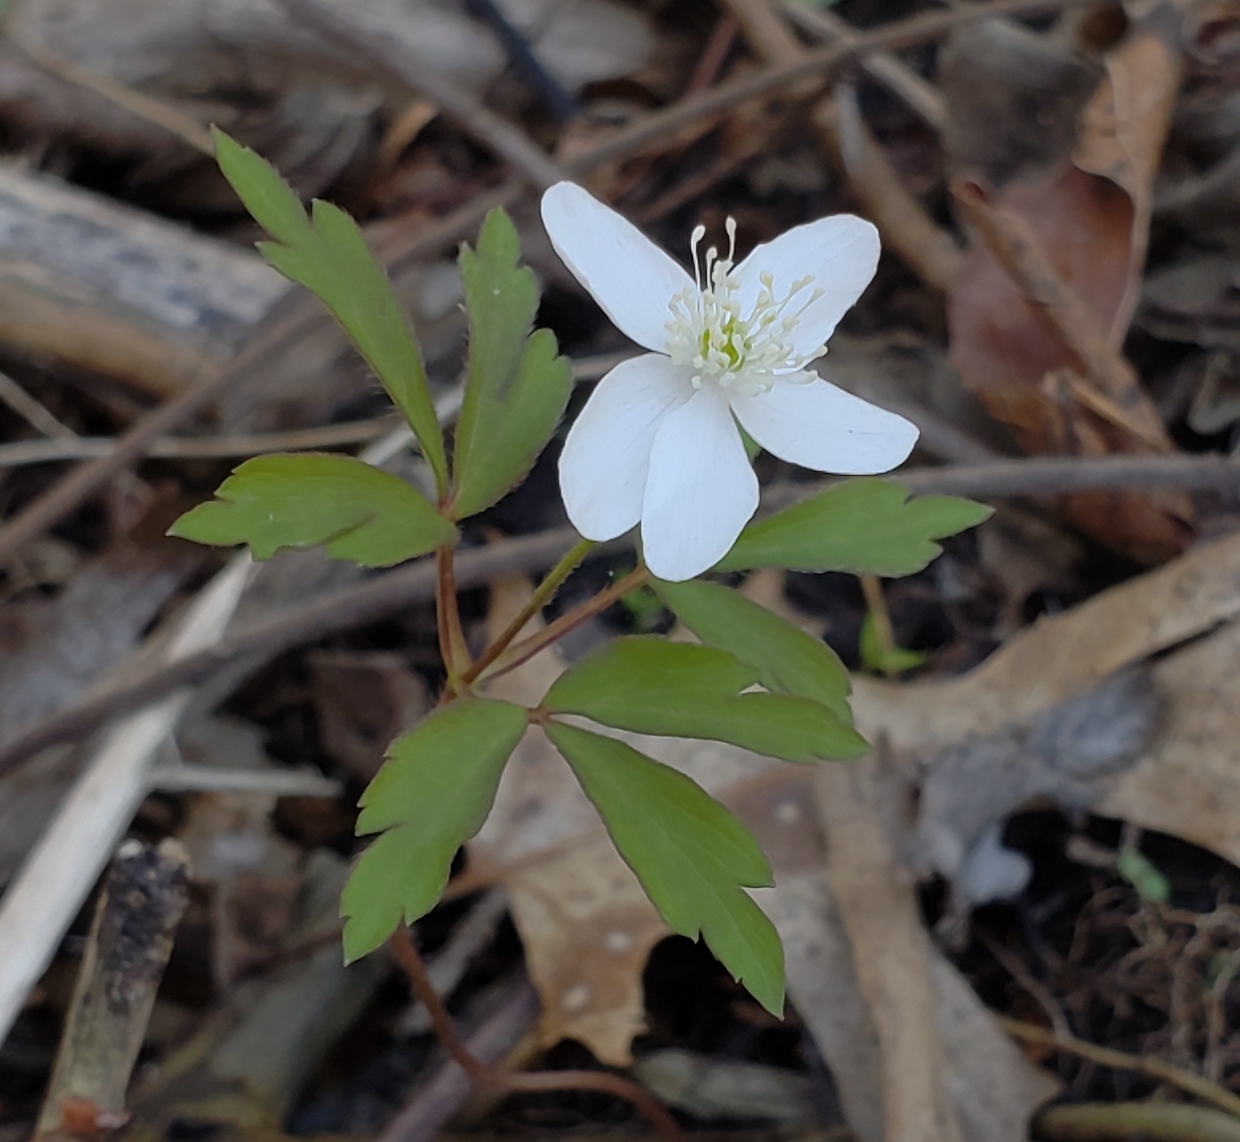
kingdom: Plantae
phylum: Tracheophyta
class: Magnoliopsida
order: Ranunculales
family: Ranunculaceae
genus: Anemone
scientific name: Anemone quinquefolia
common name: Wood anemone
